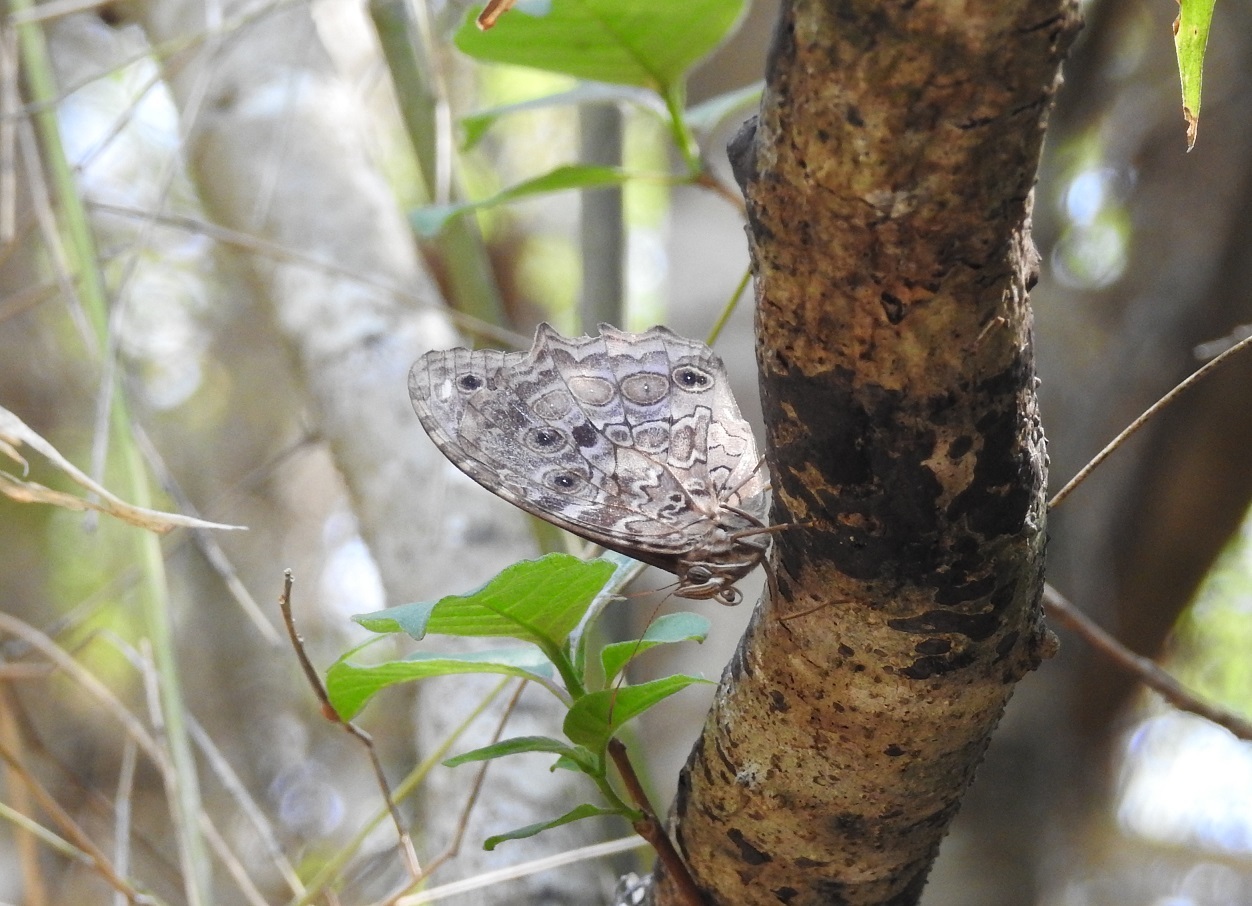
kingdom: Animalia
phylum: Arthropoda
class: Insecta
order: Lepidoptera
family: Nymphalidae
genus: Manataria
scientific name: Manataria maculata
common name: White-spotted satyr
